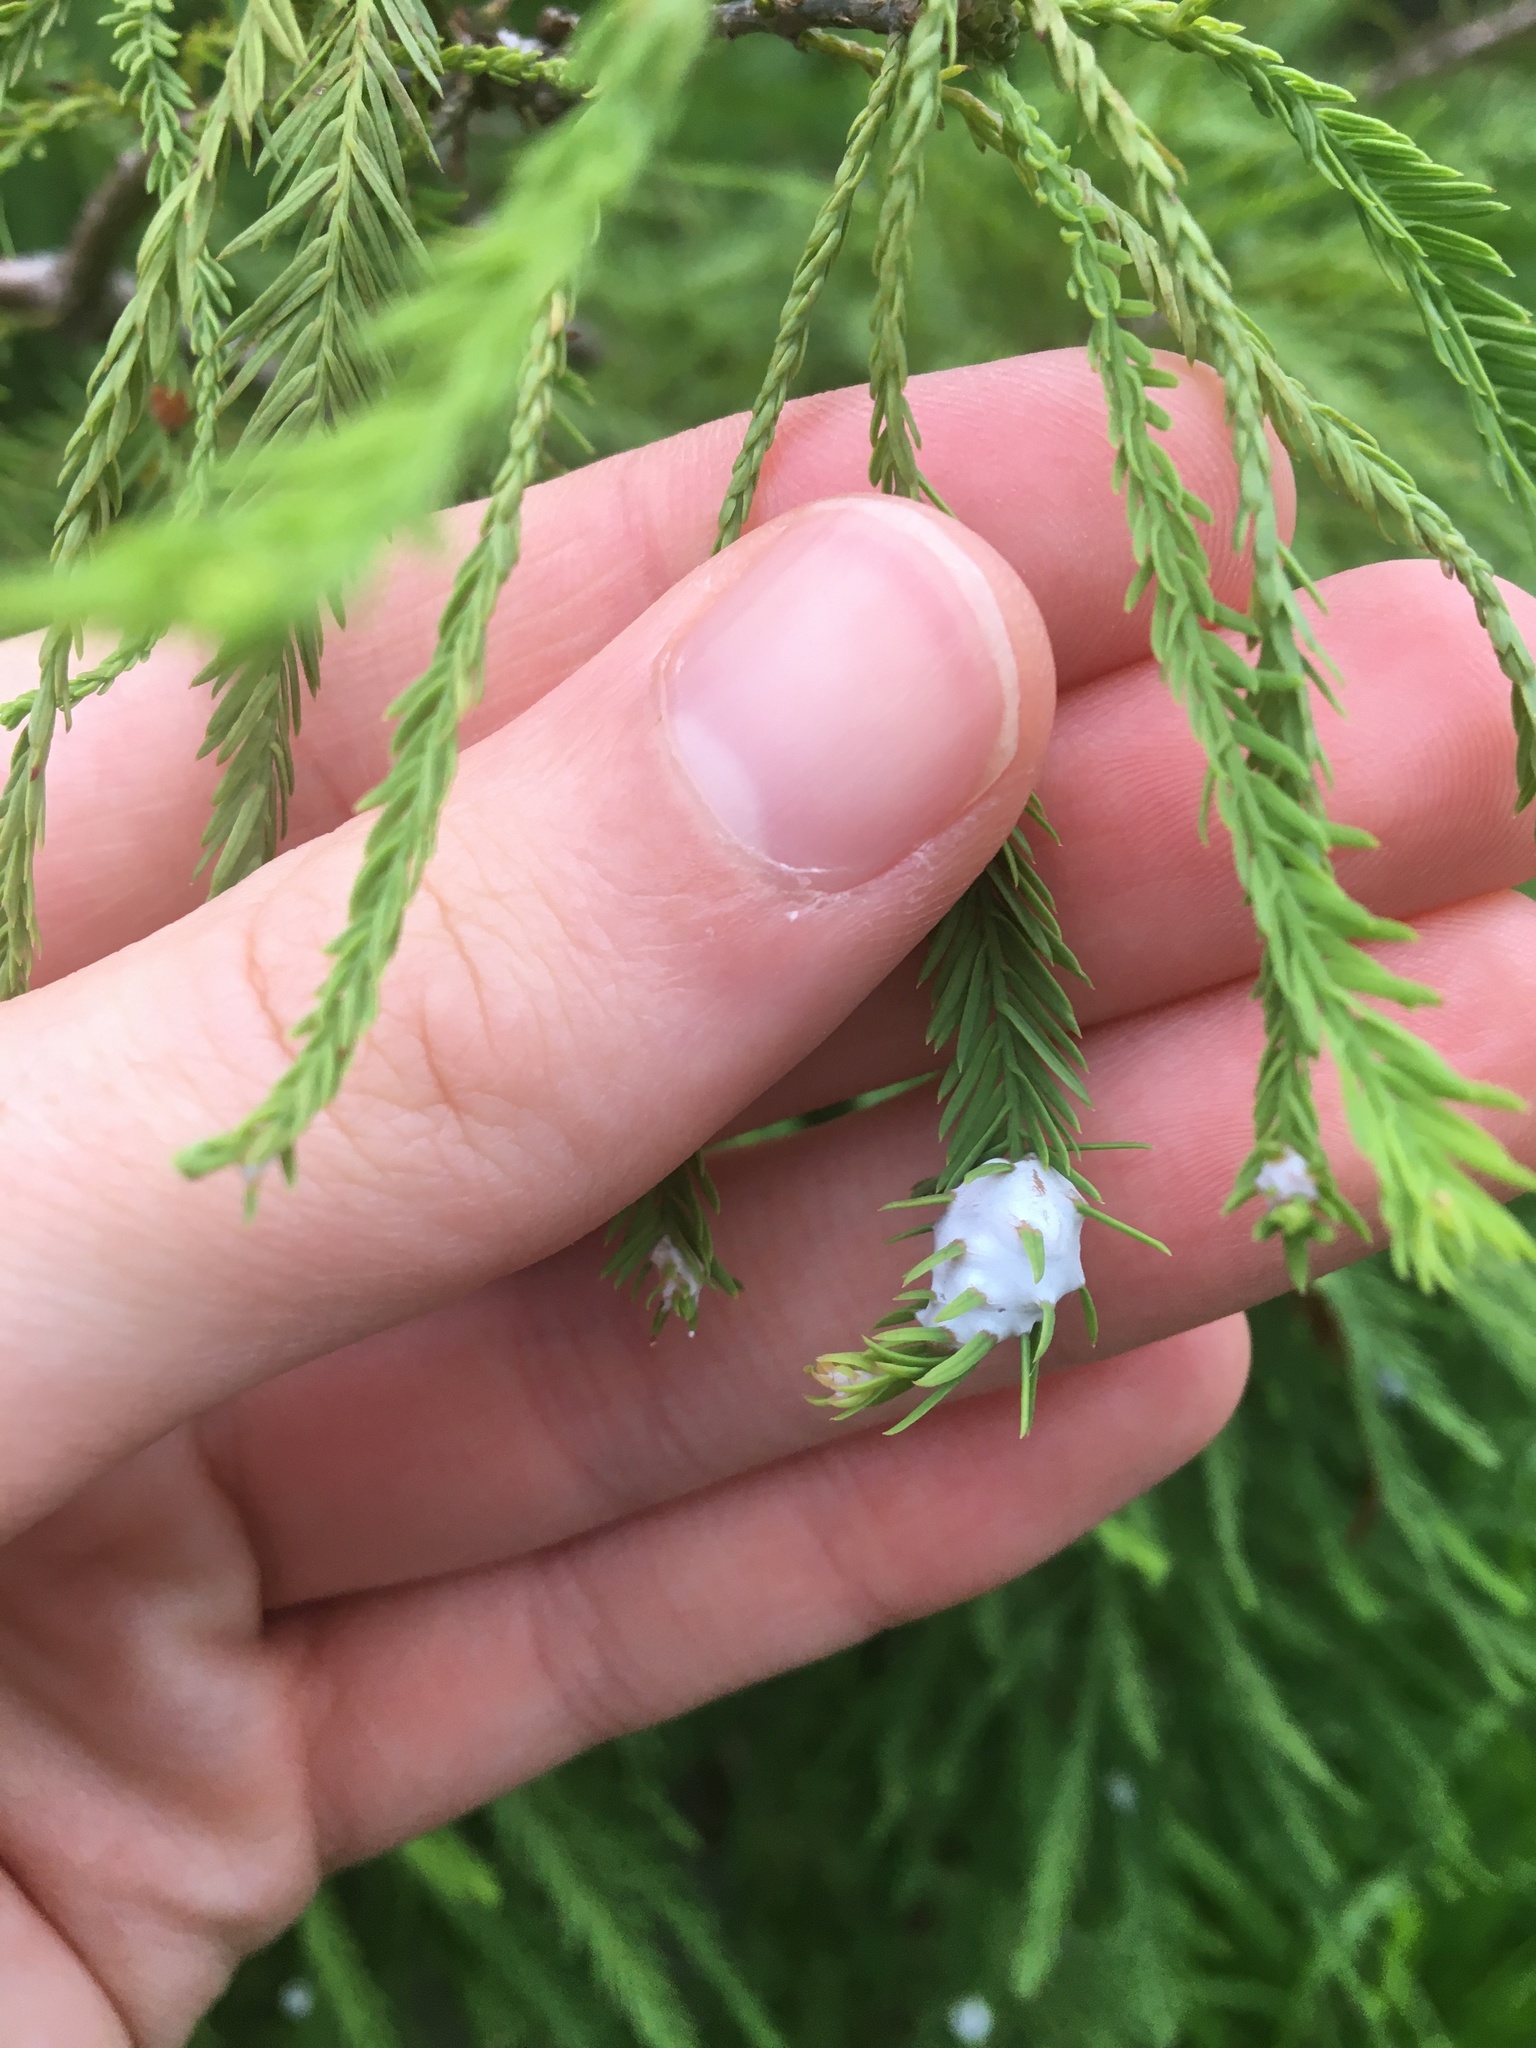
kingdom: Animalia
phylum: Arthropoda
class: Insecta
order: Diptera
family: Cecidomyiidae
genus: Taxodiomyia
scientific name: Taxodiomyia cupressiananassa
